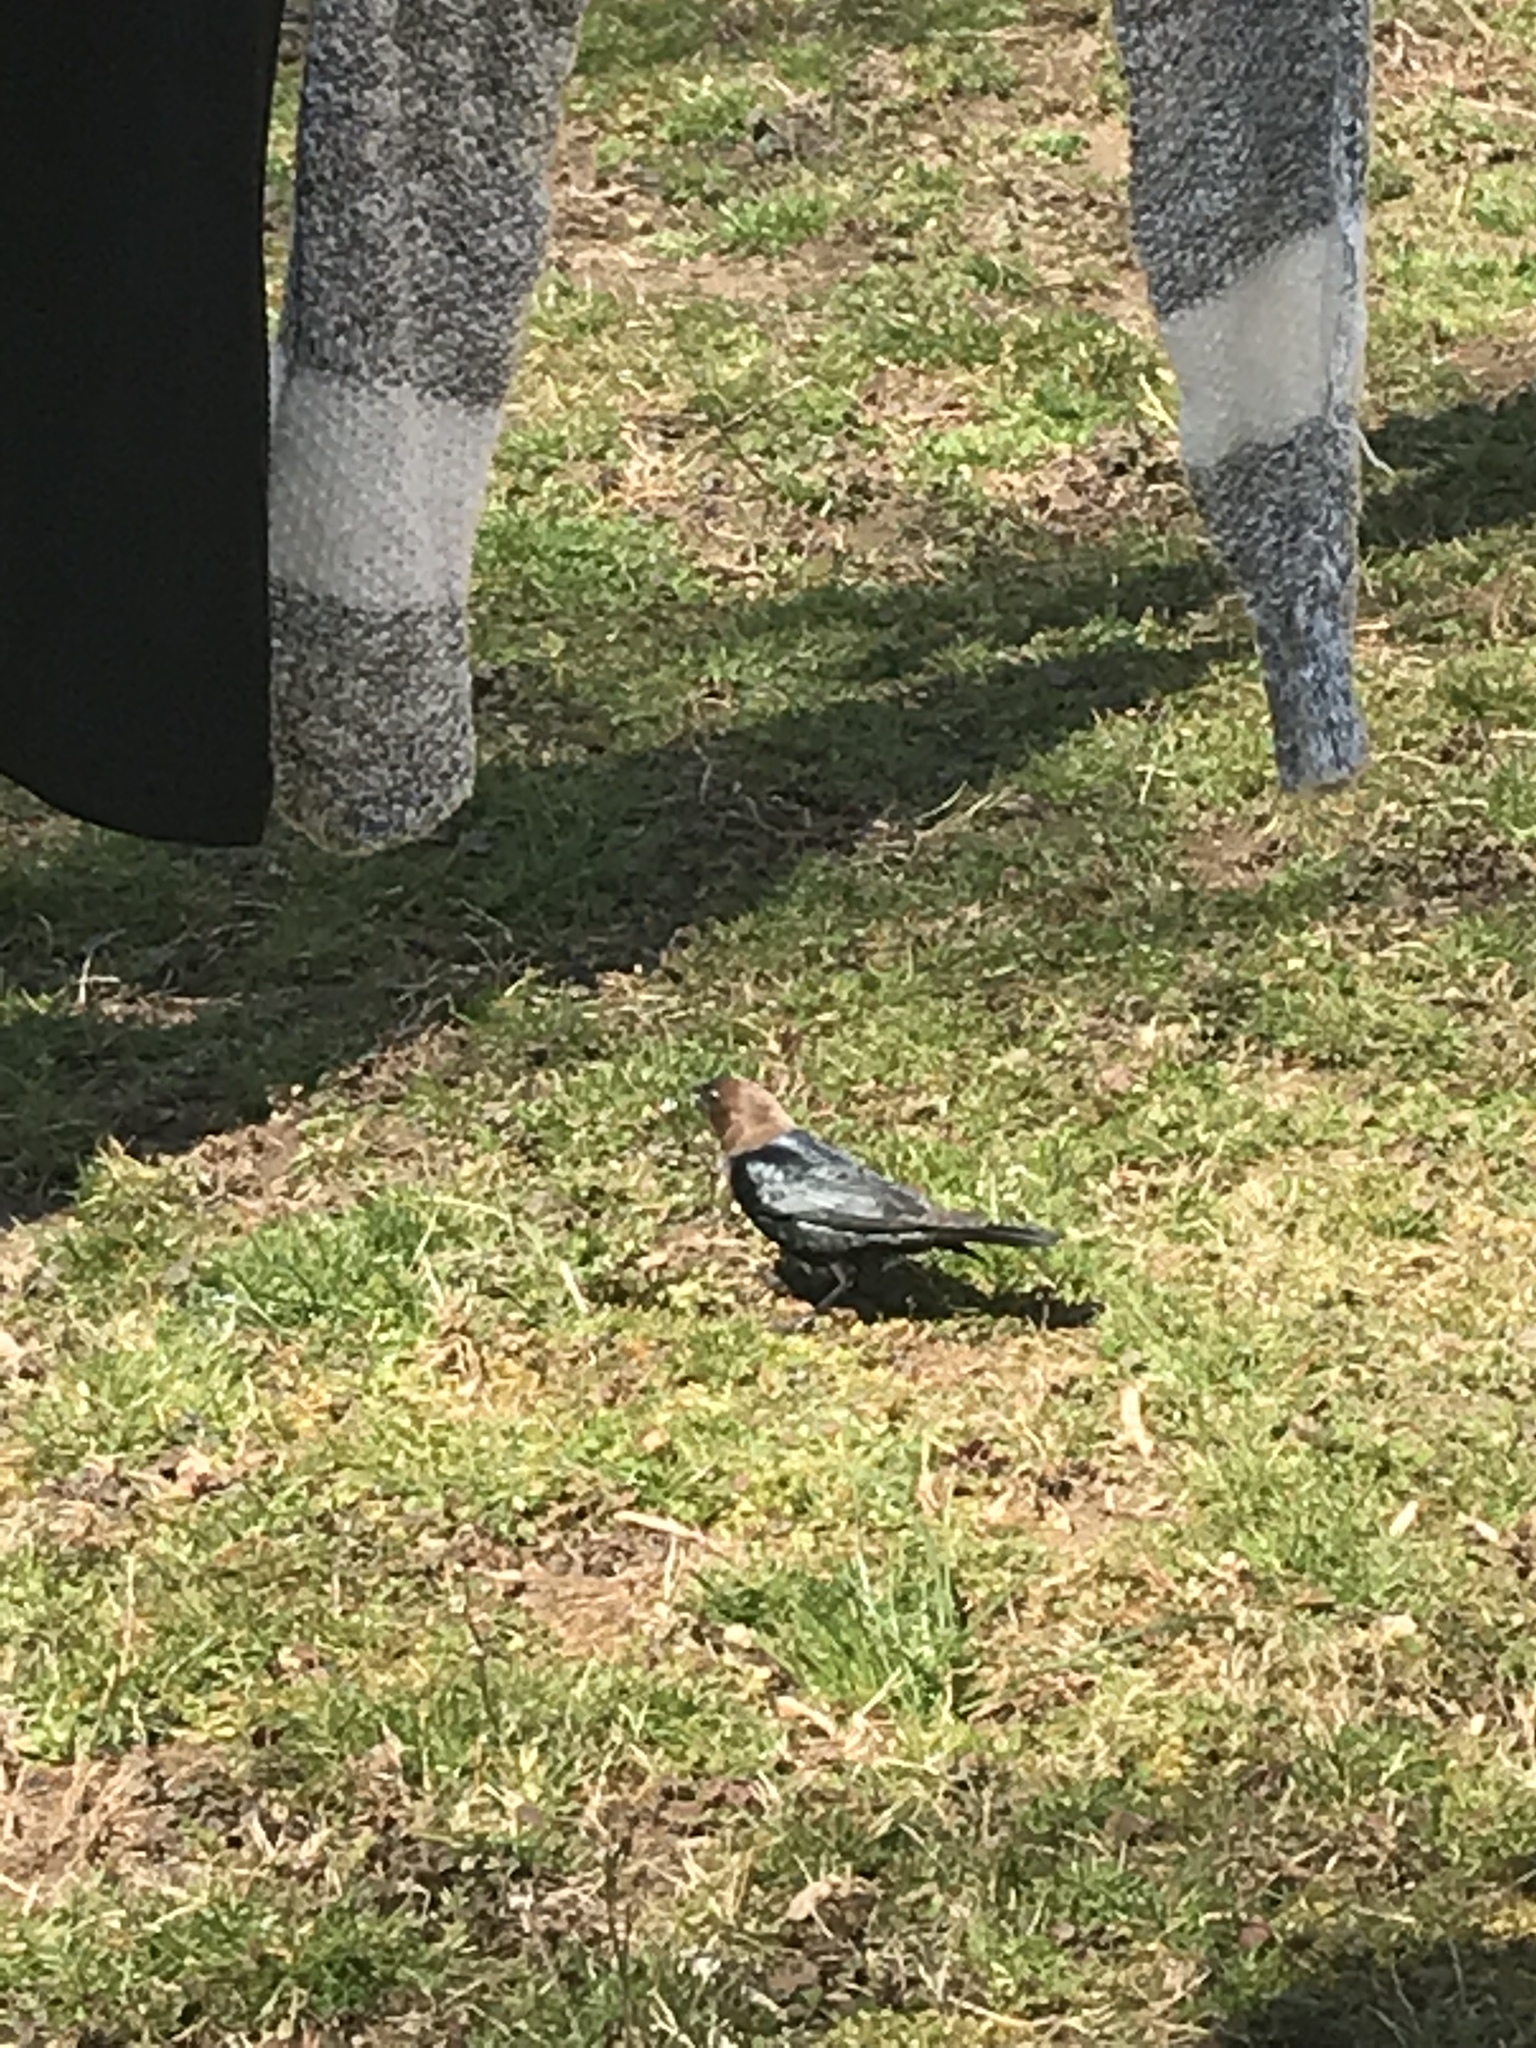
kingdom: Animalia
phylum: Chordata
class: Aves
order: Passeriformes
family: Icteridae
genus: Molothrus
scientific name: Molothrus ater
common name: Brown-headed cowbird
